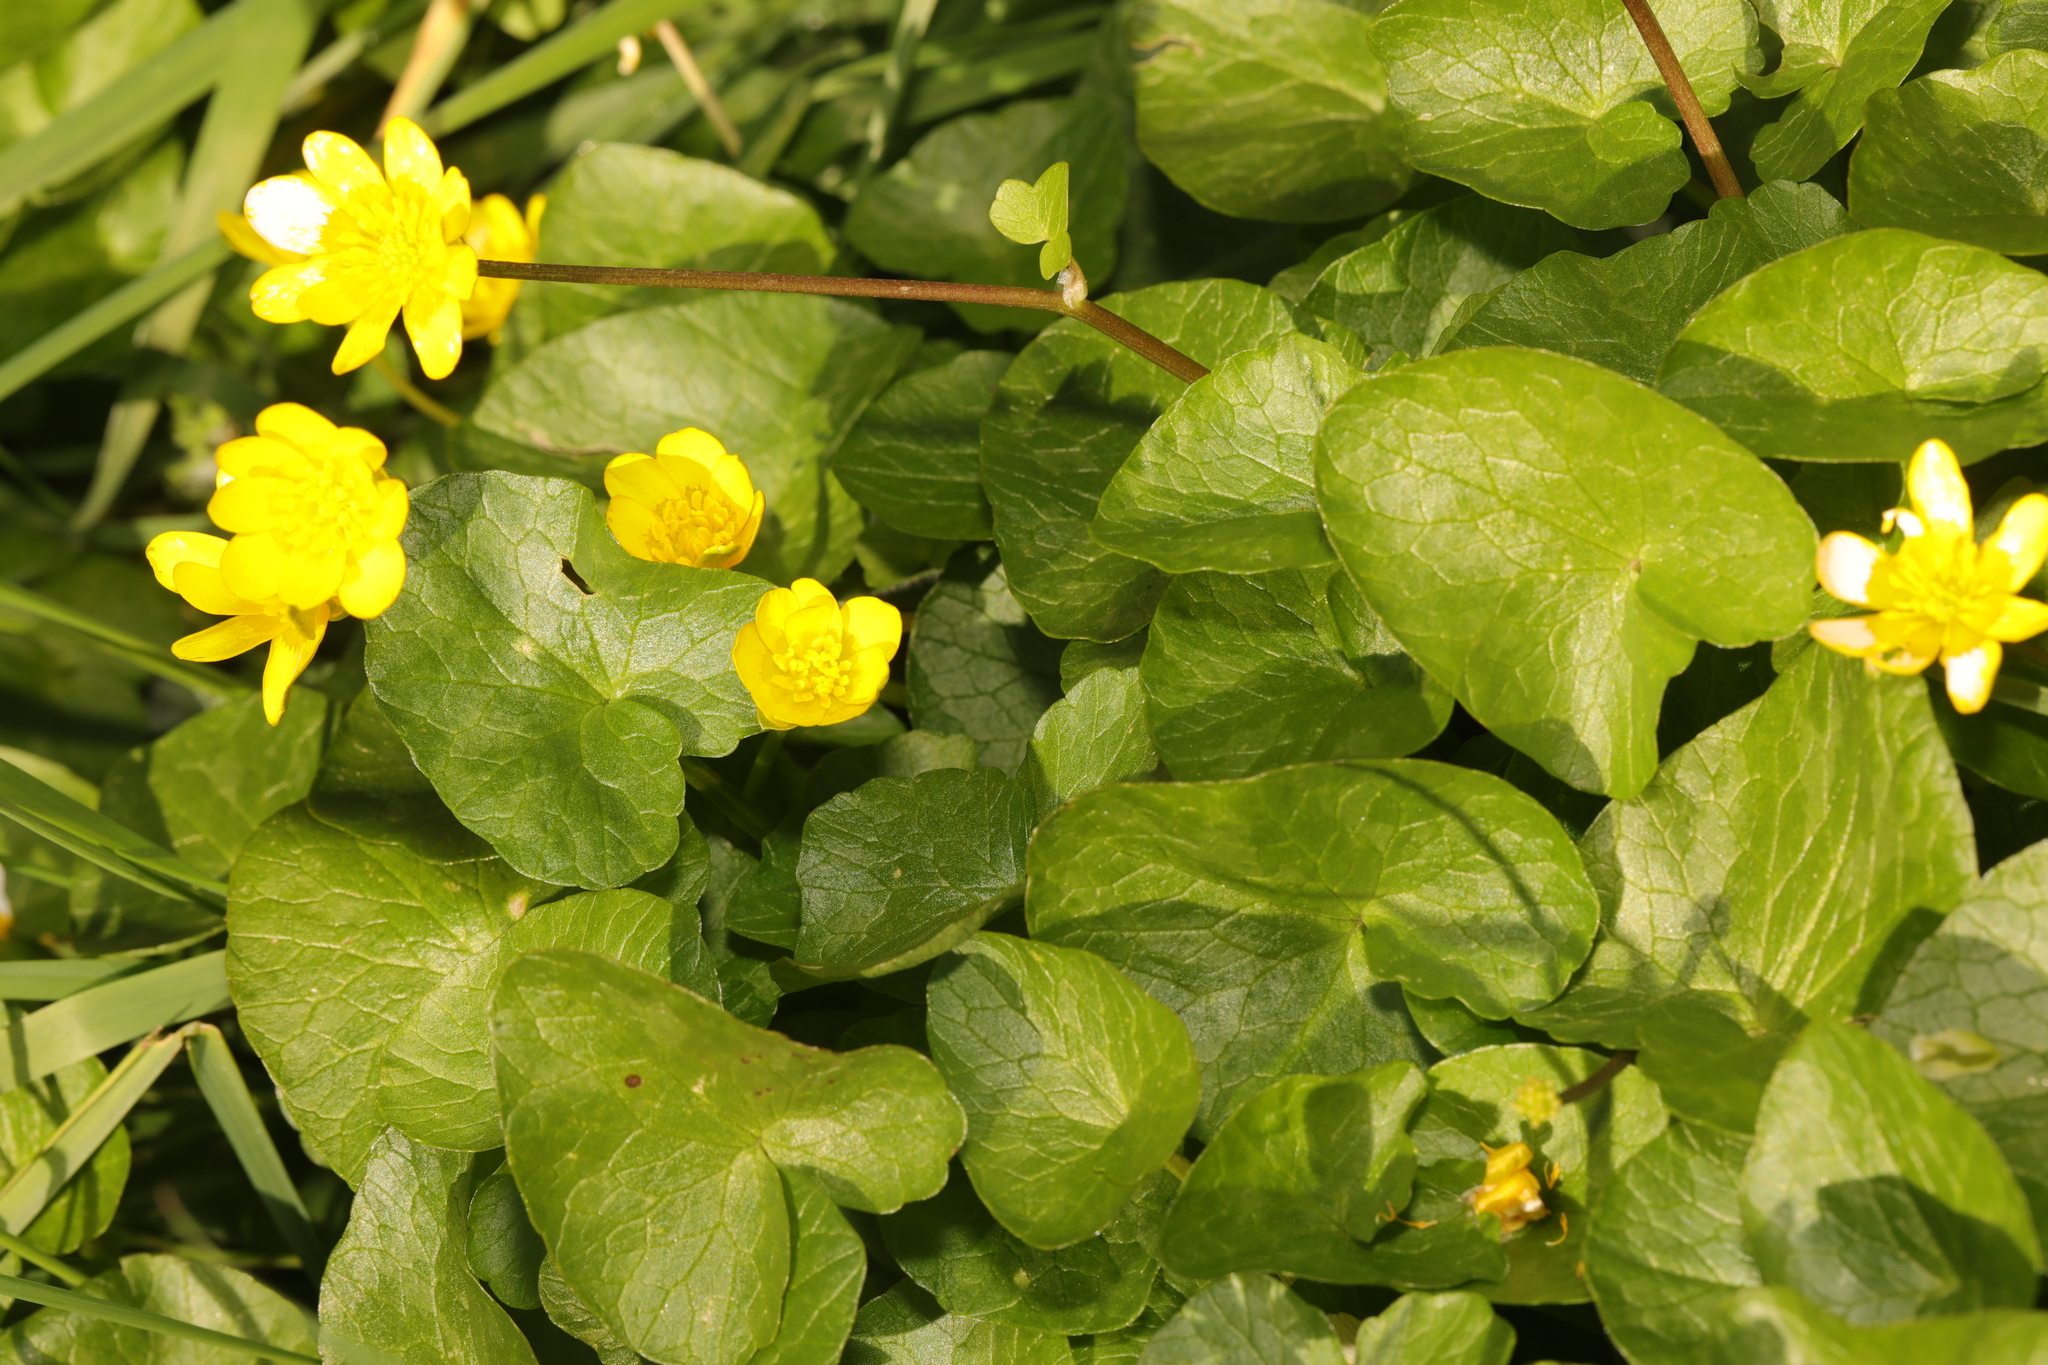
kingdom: Plantae
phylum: Tracheophyta
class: Magnoliopsida
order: Ranunculales
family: Ranunculaceae
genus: Ficaria
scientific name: Ficaria verna
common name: Lesser celandine
